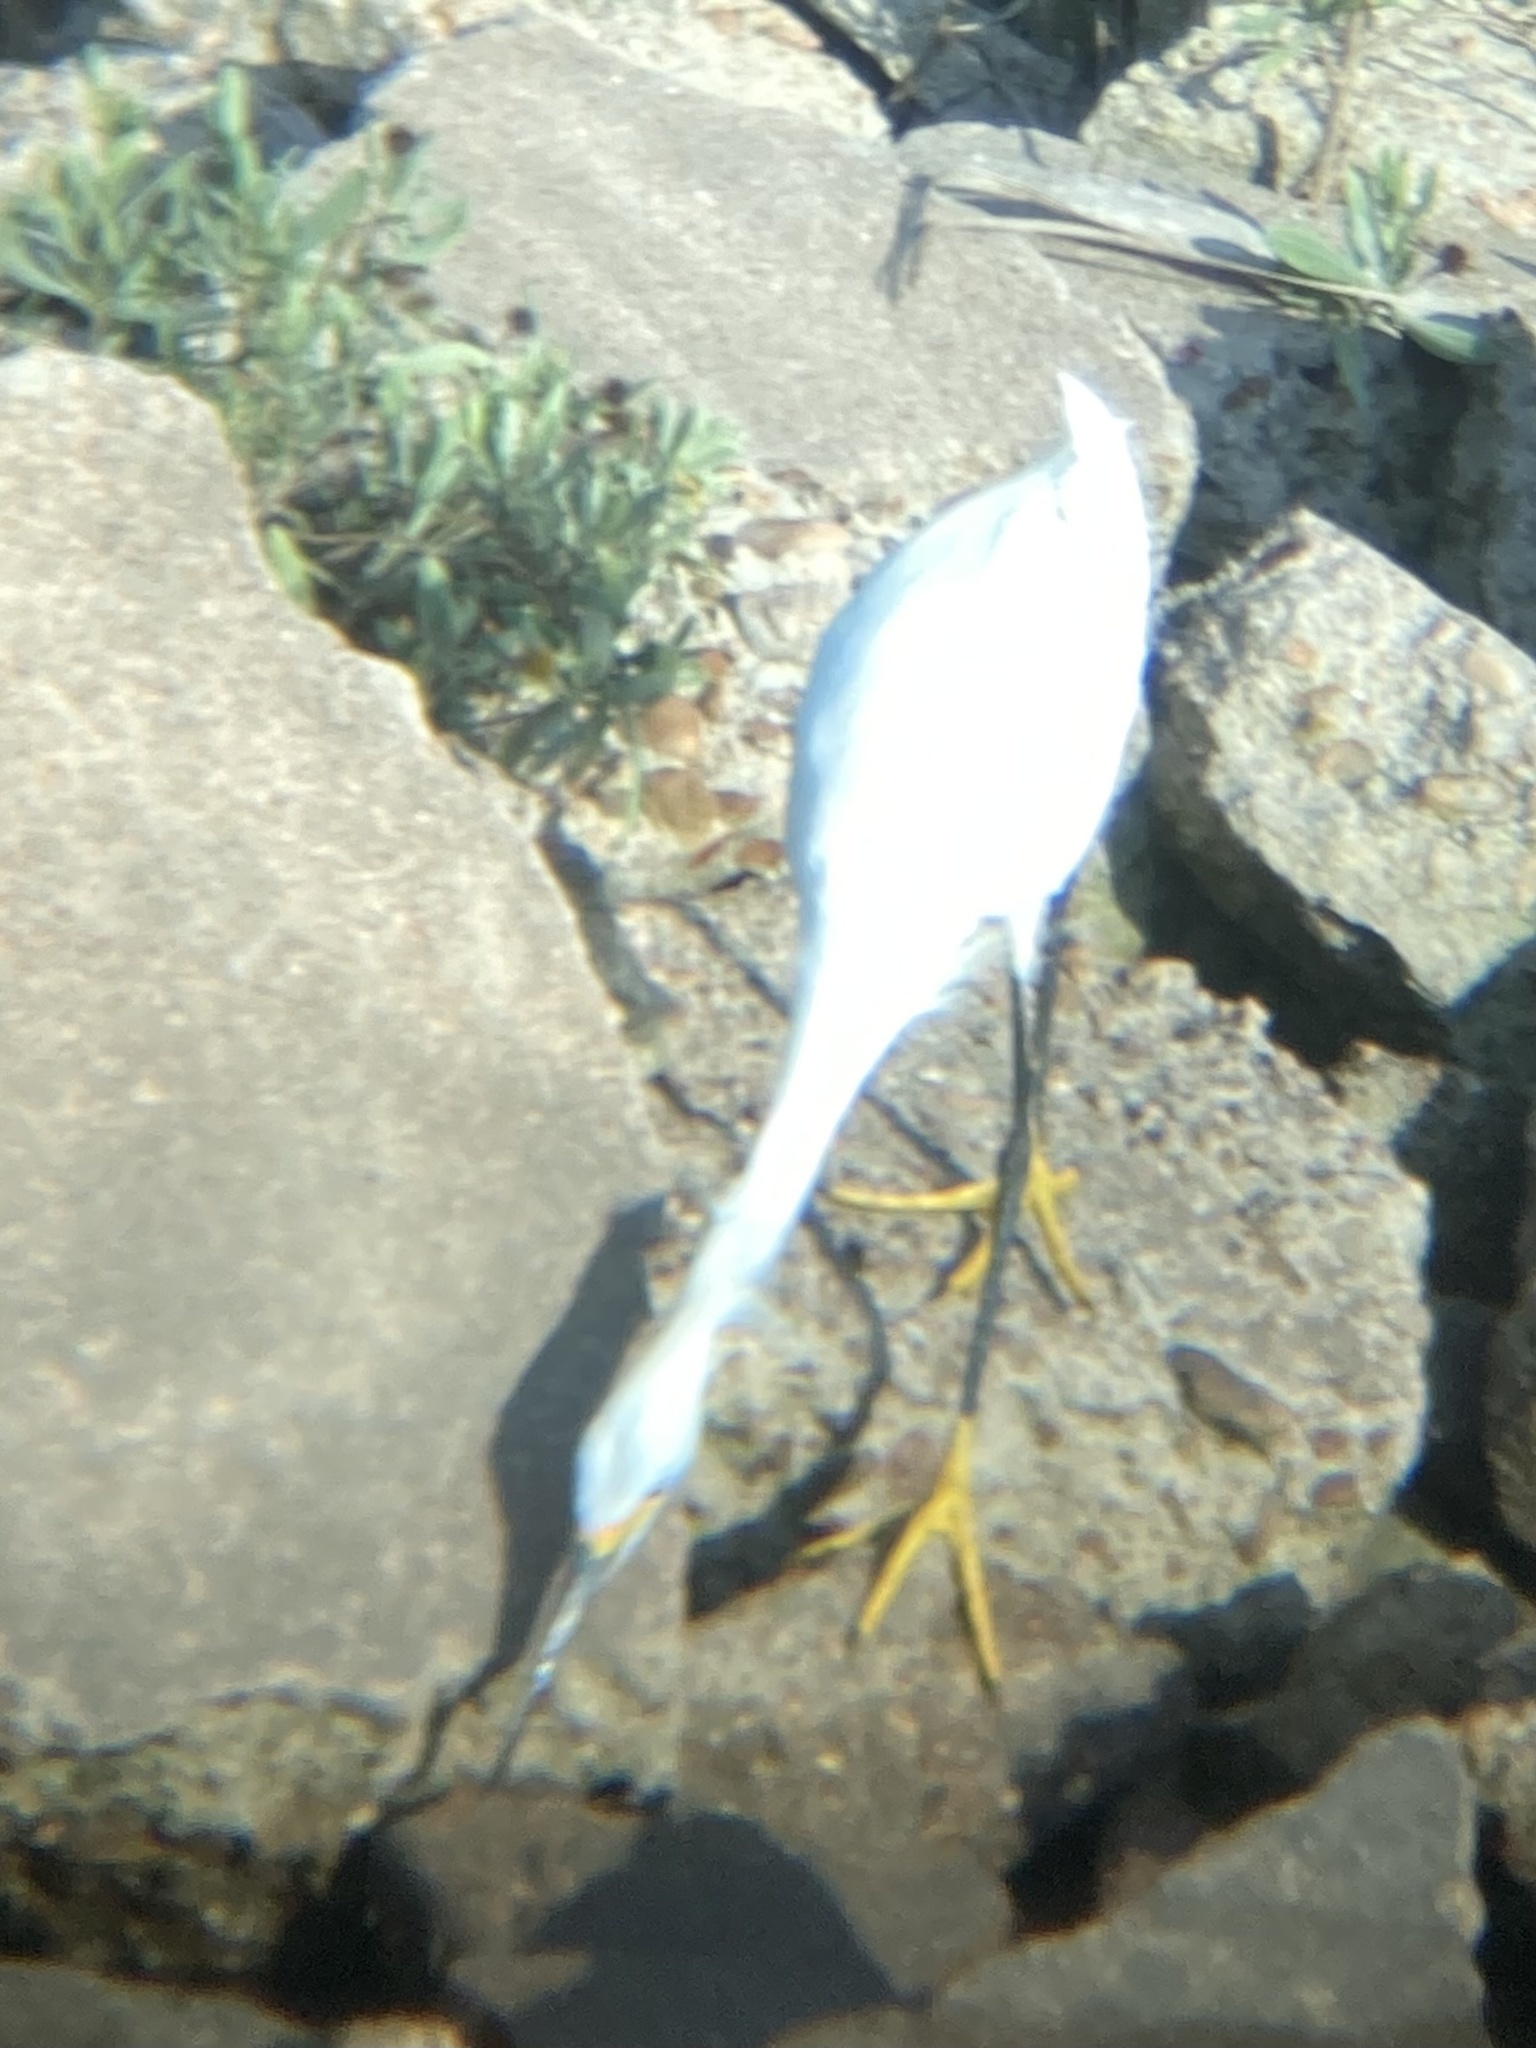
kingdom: Animalia
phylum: Chordata
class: Aves
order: Pelecaniformes
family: Ardeidae
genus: Egretta
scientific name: Egretta thula
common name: Snowy egret
